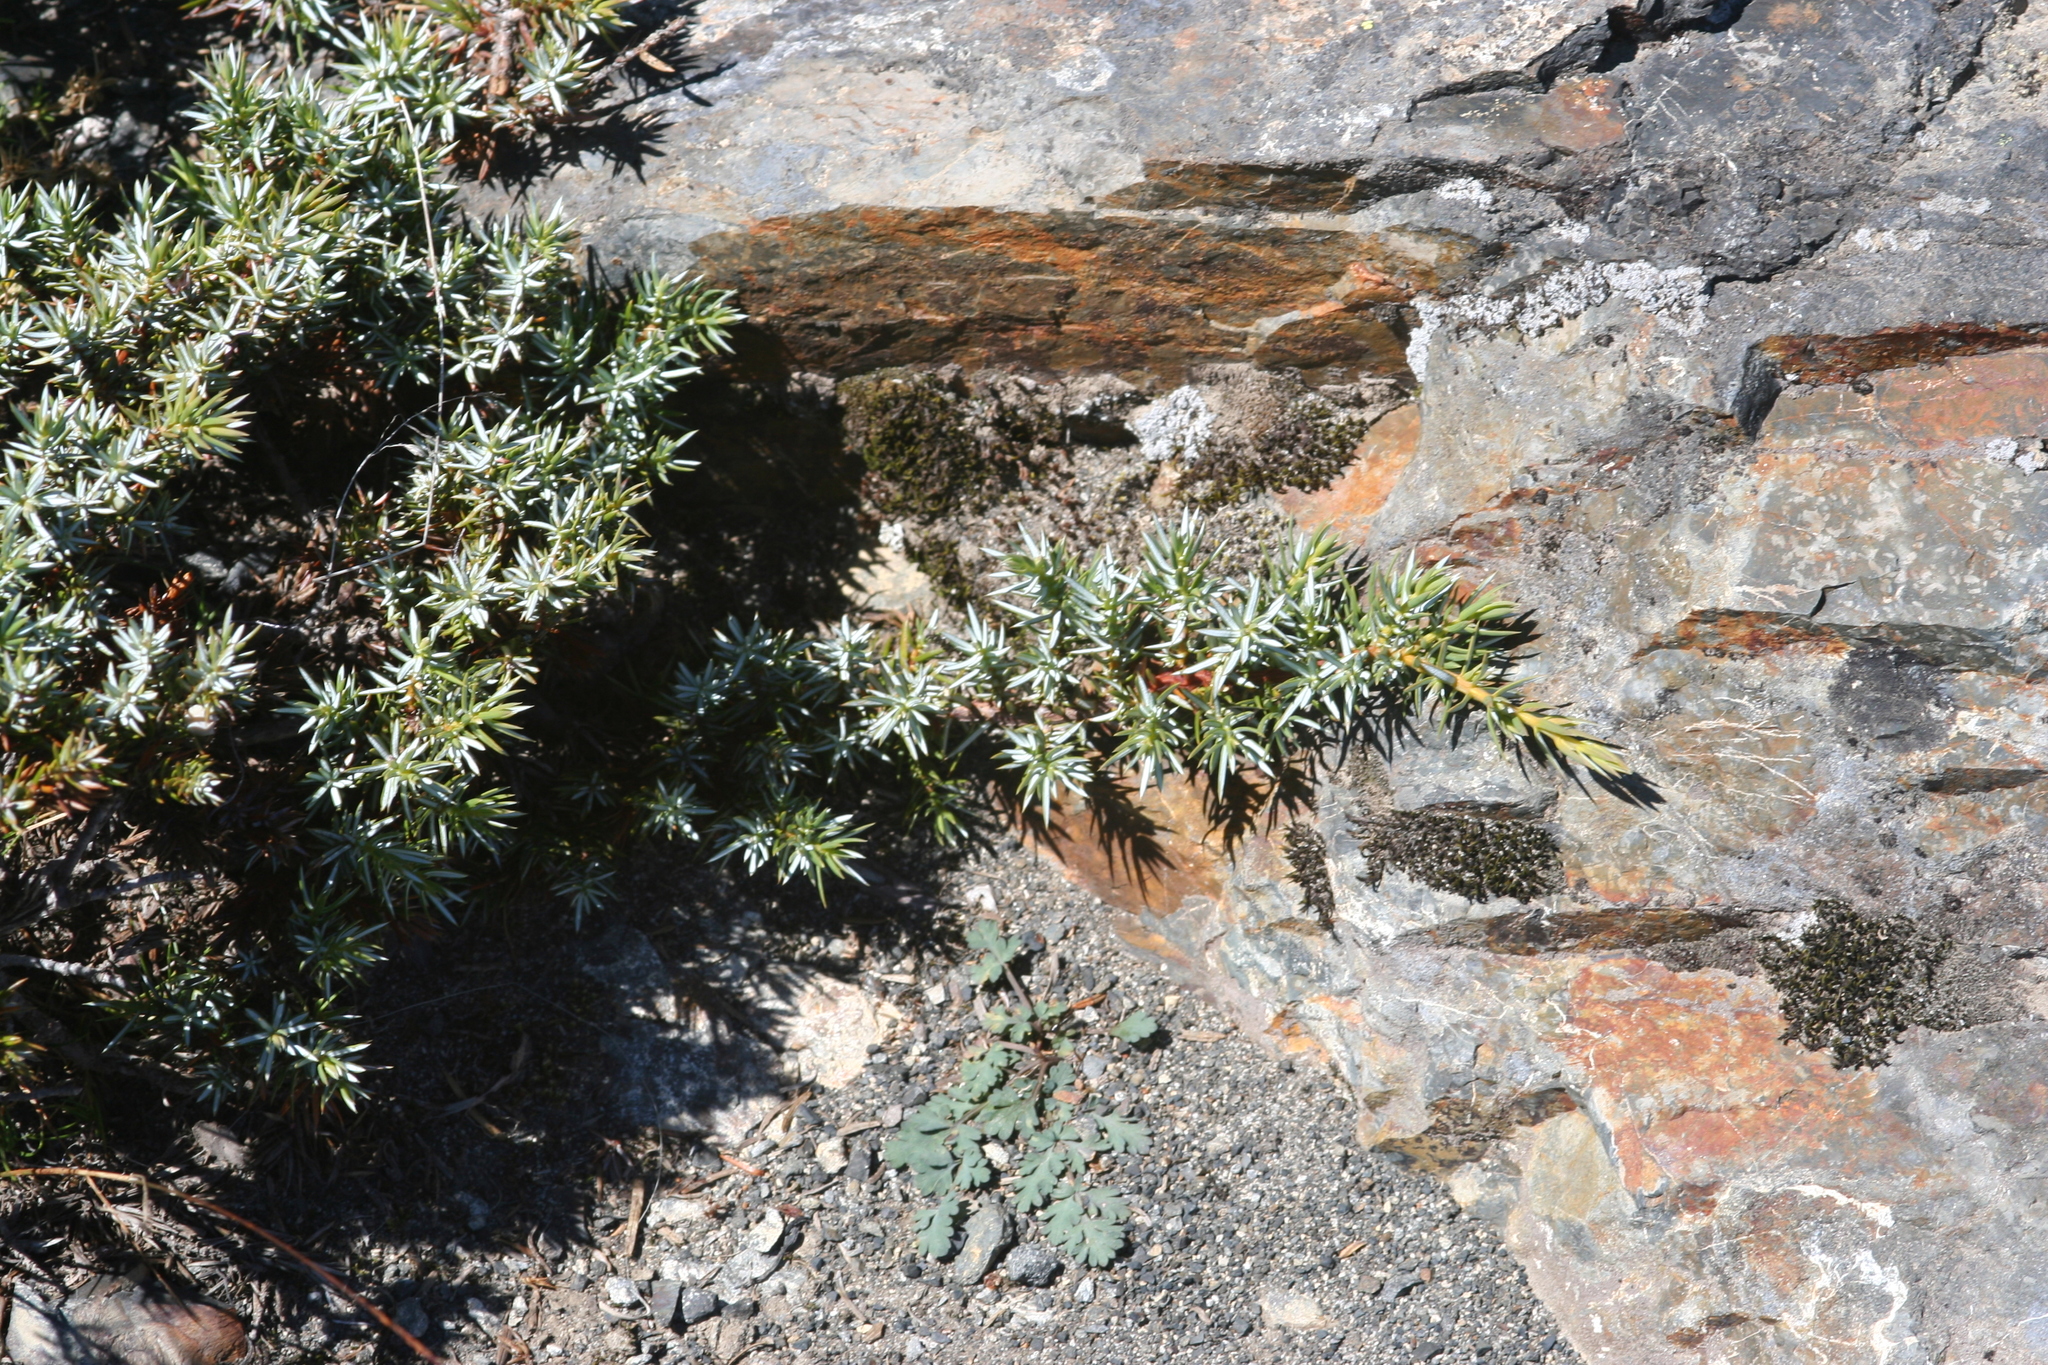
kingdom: Plantae
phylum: Tracheophyta
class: Pinopsida
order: Pinales
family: Cupressaceae
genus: Juniperus
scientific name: Juniperus communis
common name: Common juniper
